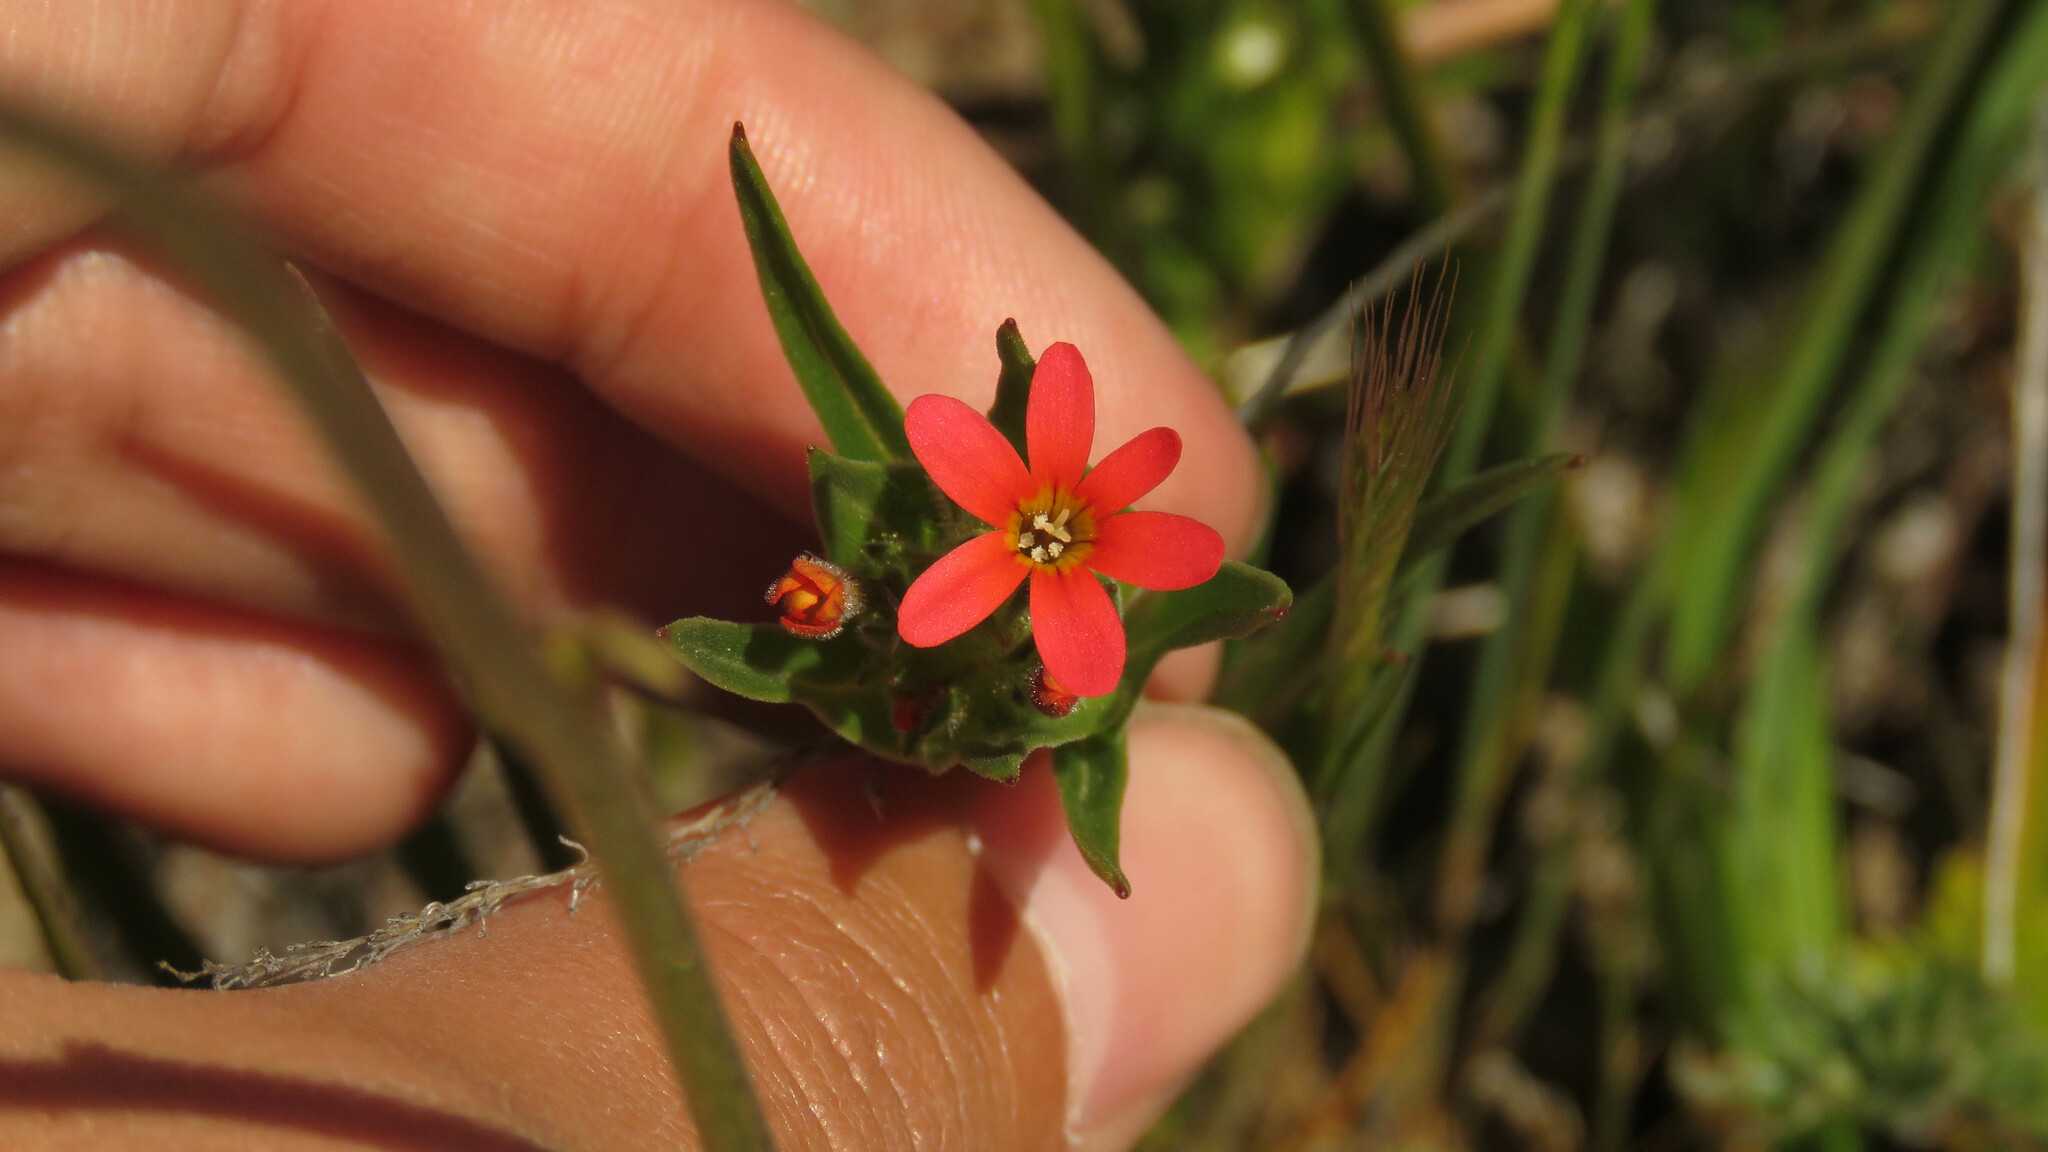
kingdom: Plantae
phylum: Tracheophyta
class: Magnoliopsida
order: Ericales
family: Polemoniaceae
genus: Collomia
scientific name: Collomia biflora
